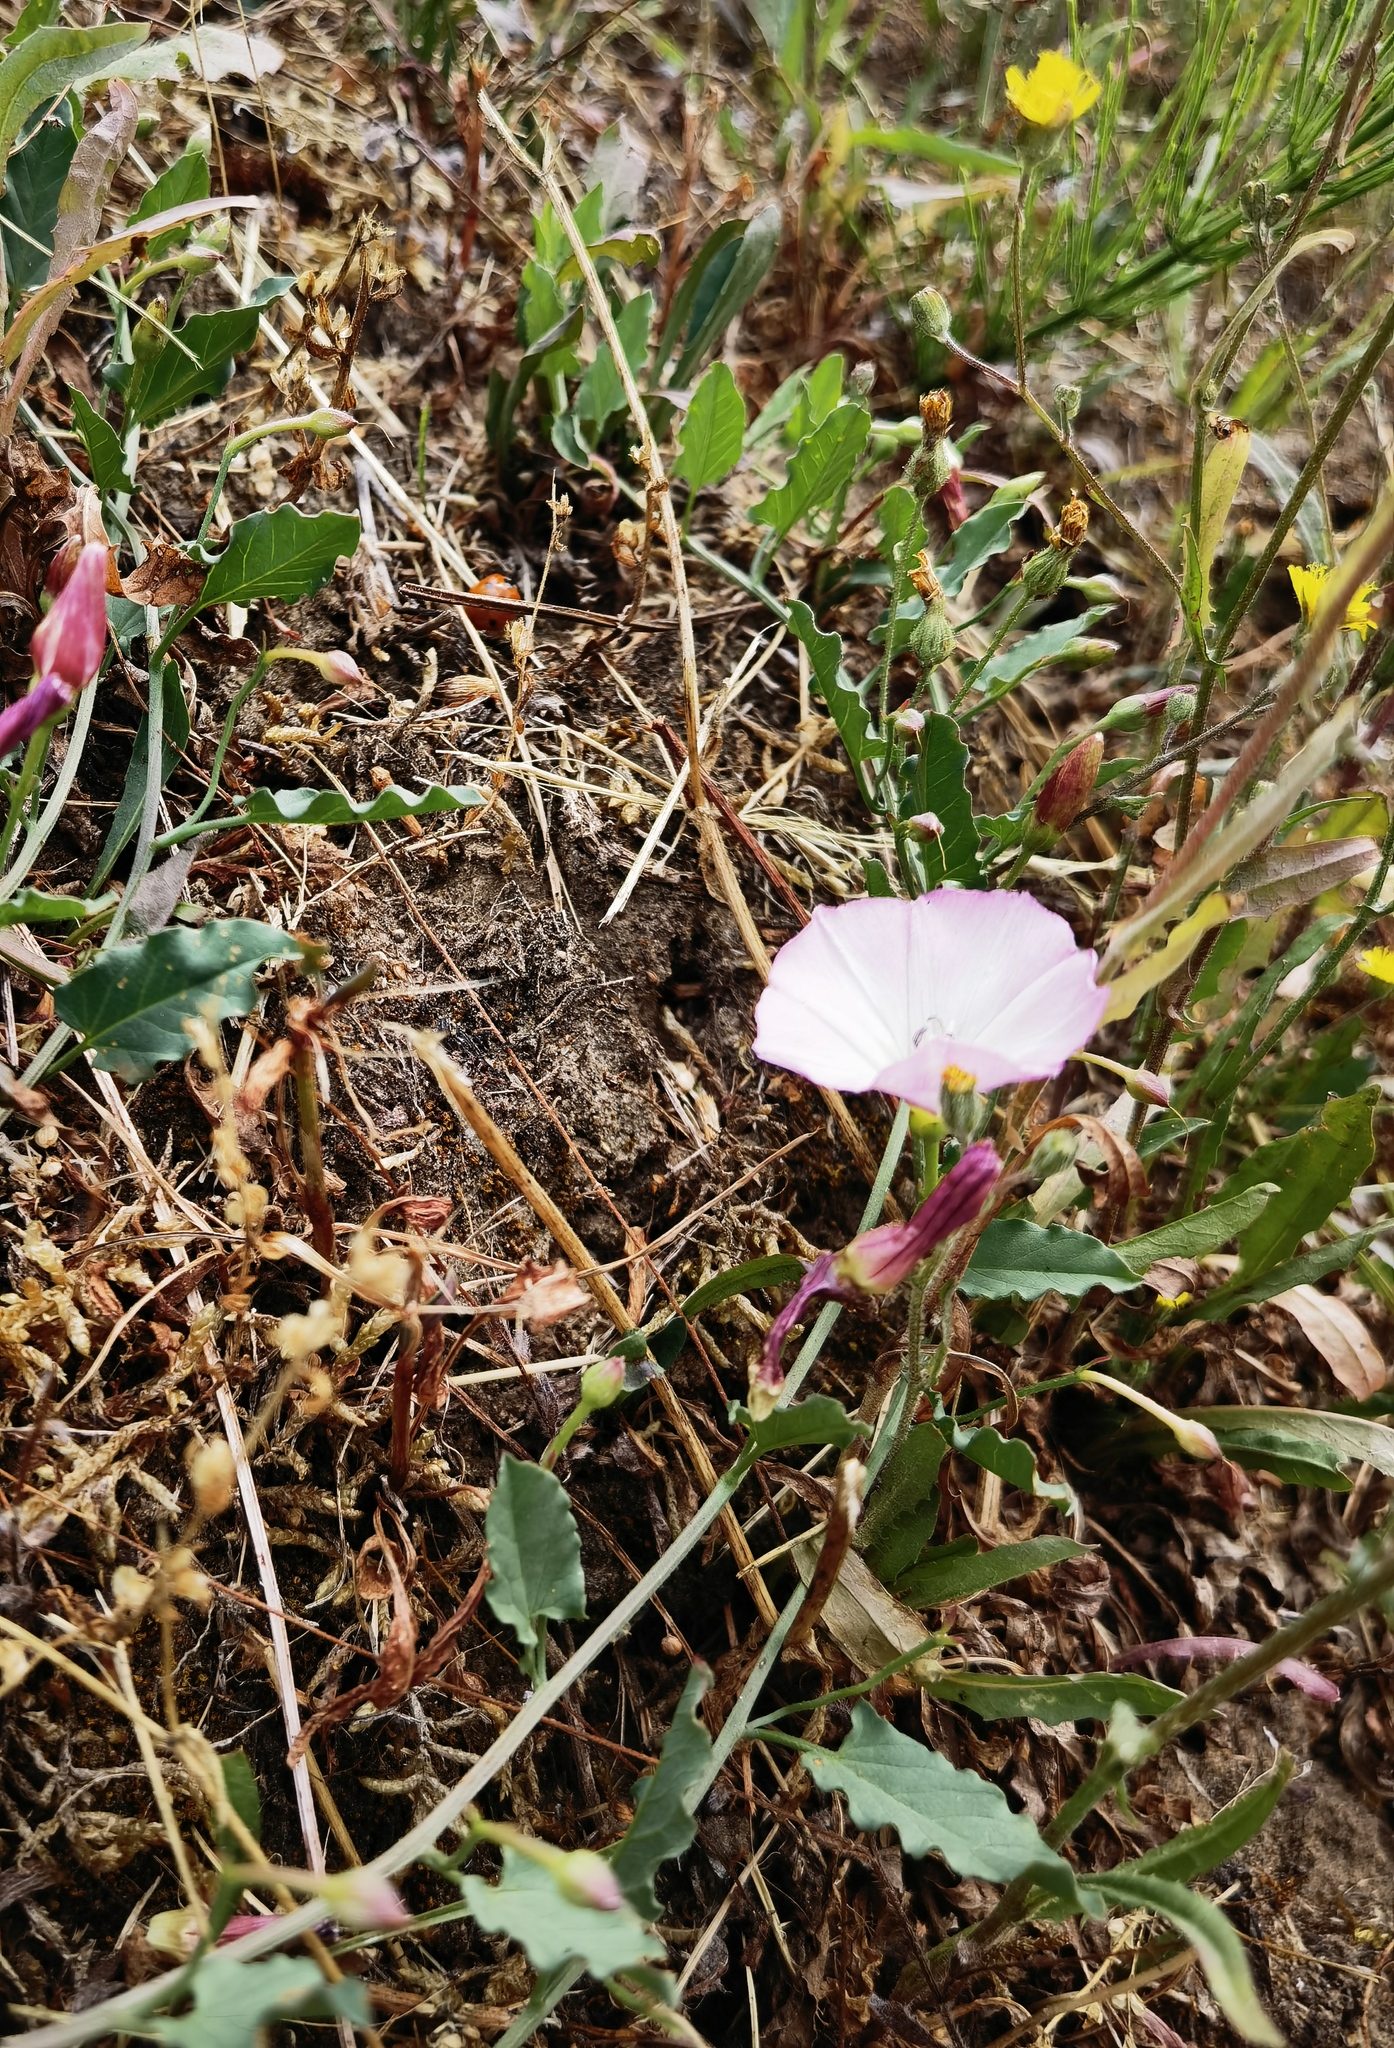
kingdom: Plantae
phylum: Tracheophyta
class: Magnoliopsida
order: Solanales
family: Convolvulaceae
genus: Convolvulus
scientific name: Convolvulus arvensis
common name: Field bindweed
